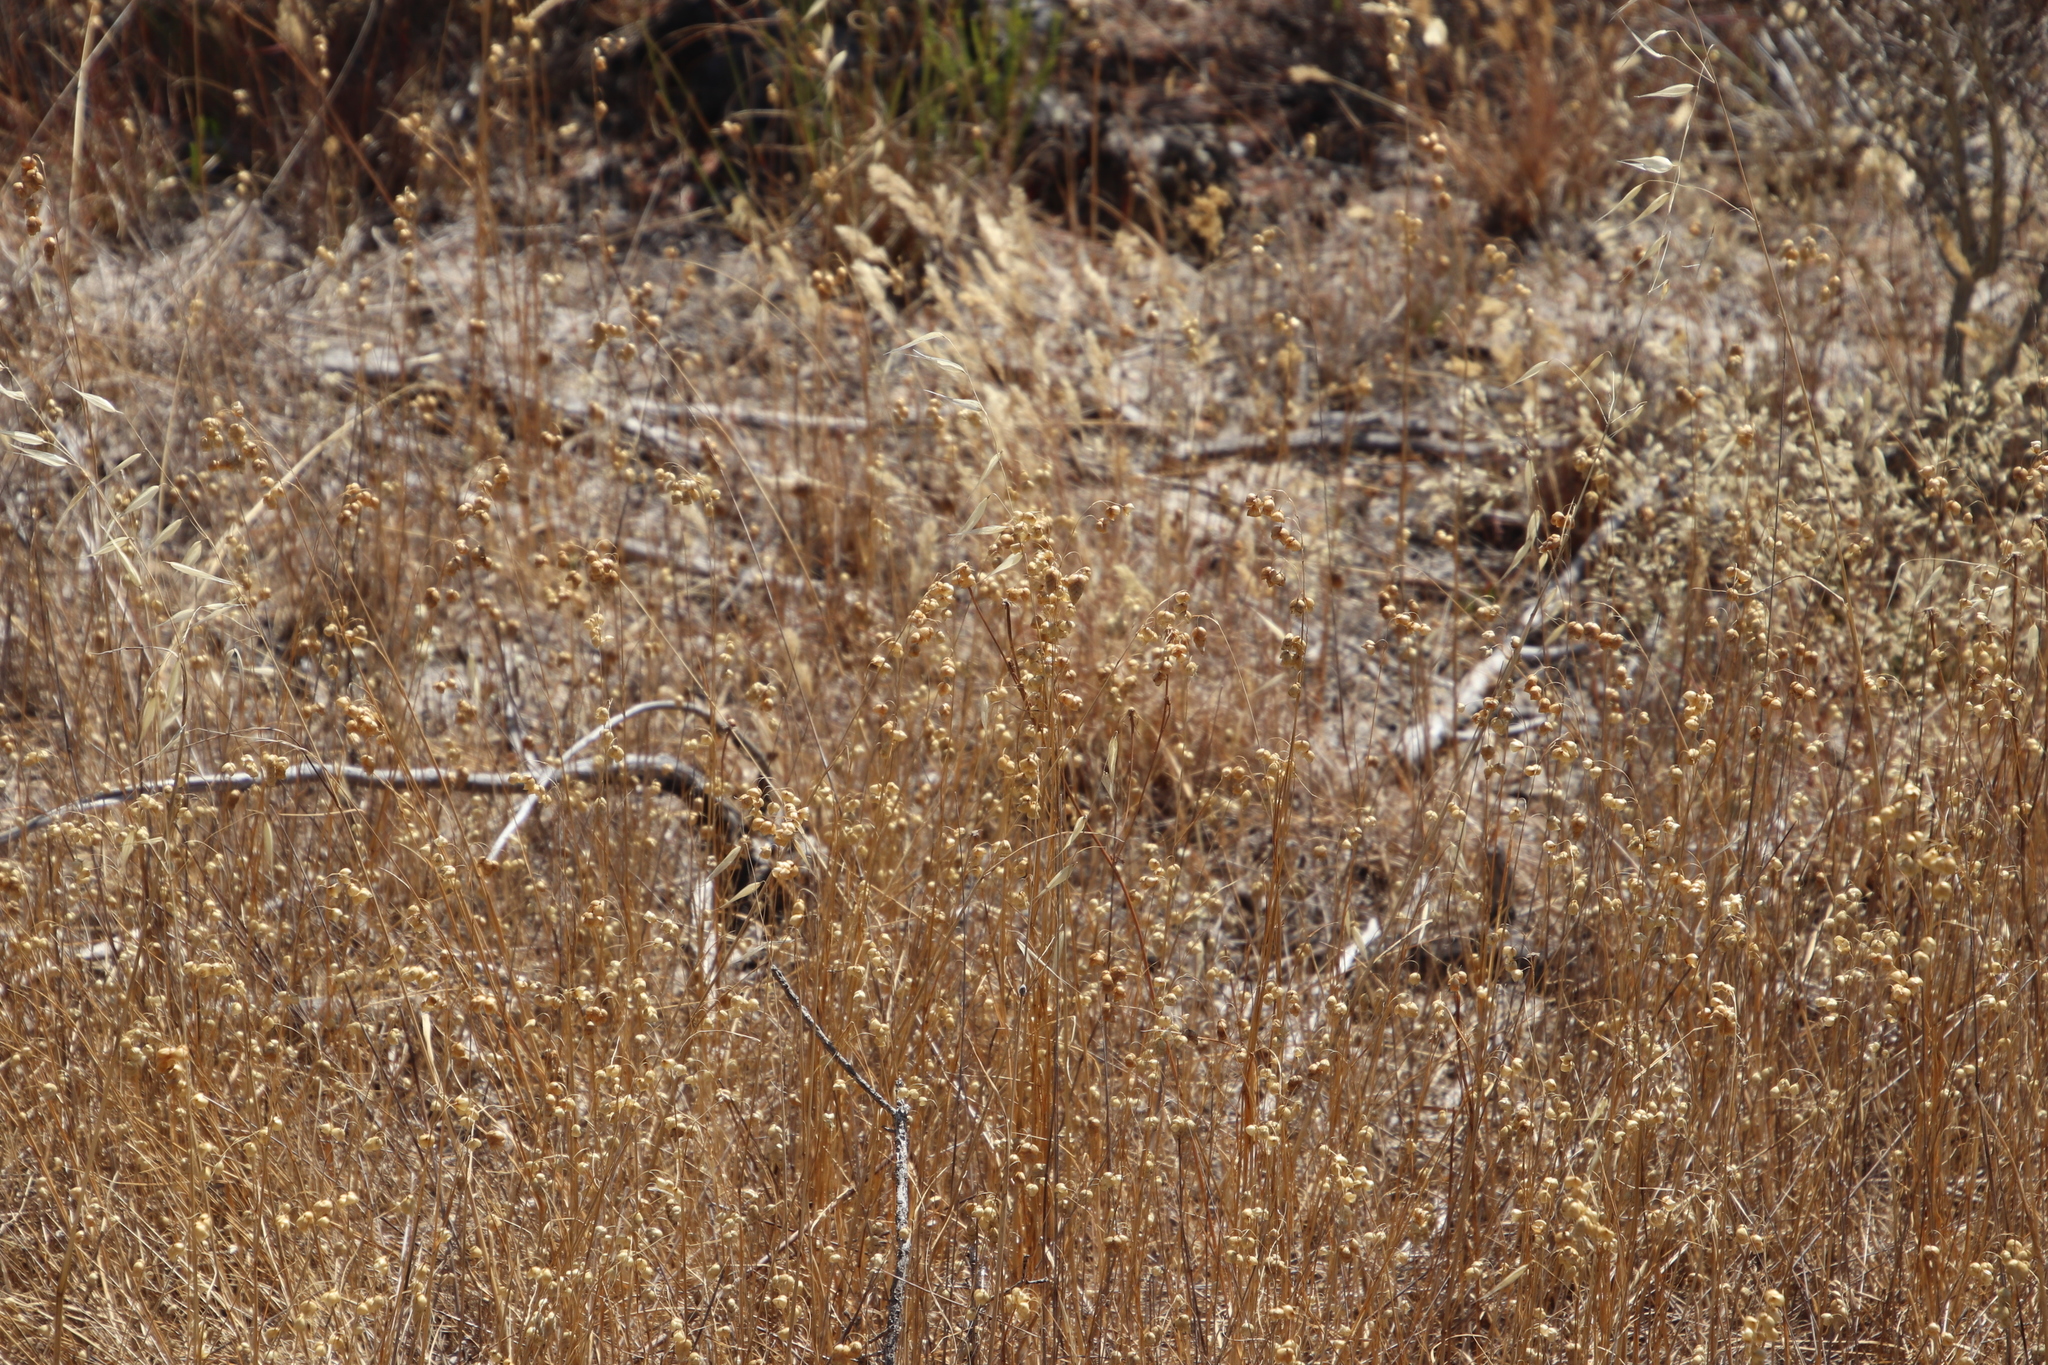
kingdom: Plantae
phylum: Tracheophyta
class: Liliopsida
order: Poales
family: Poaceae
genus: Briza
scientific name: Briza maxima
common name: Big quakinggrass
